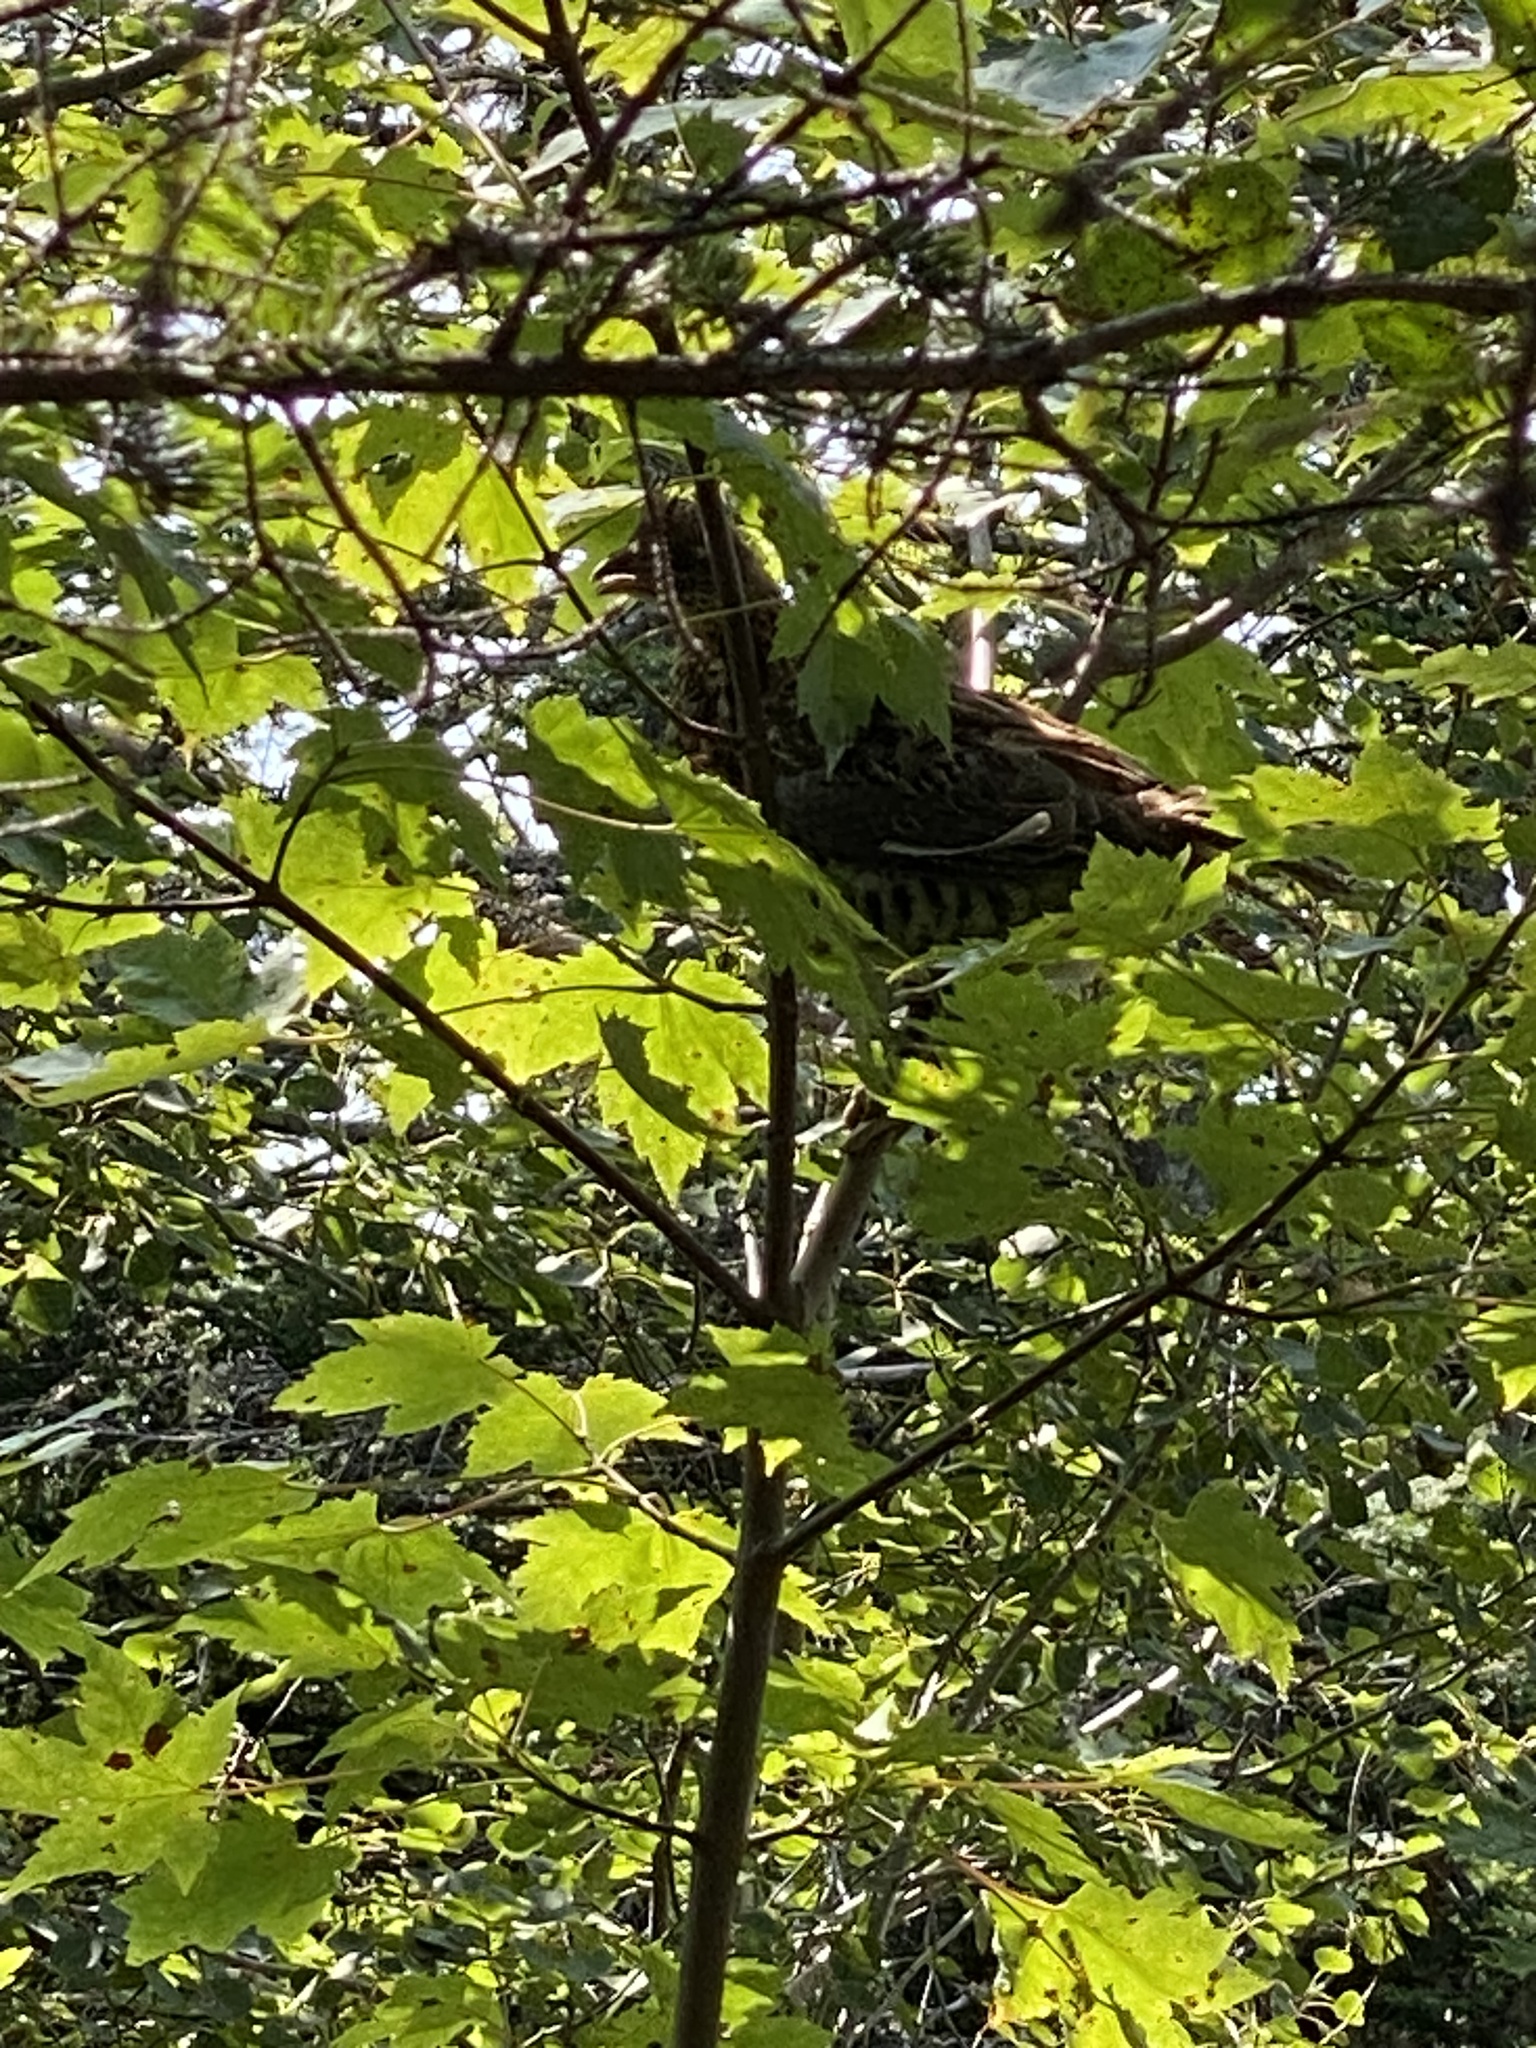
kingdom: Animalia
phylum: Chordata
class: Aves
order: Galliformes
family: Phasianidae
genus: Bonasa
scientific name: Bonasa umbellus
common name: Ruffed grouse
